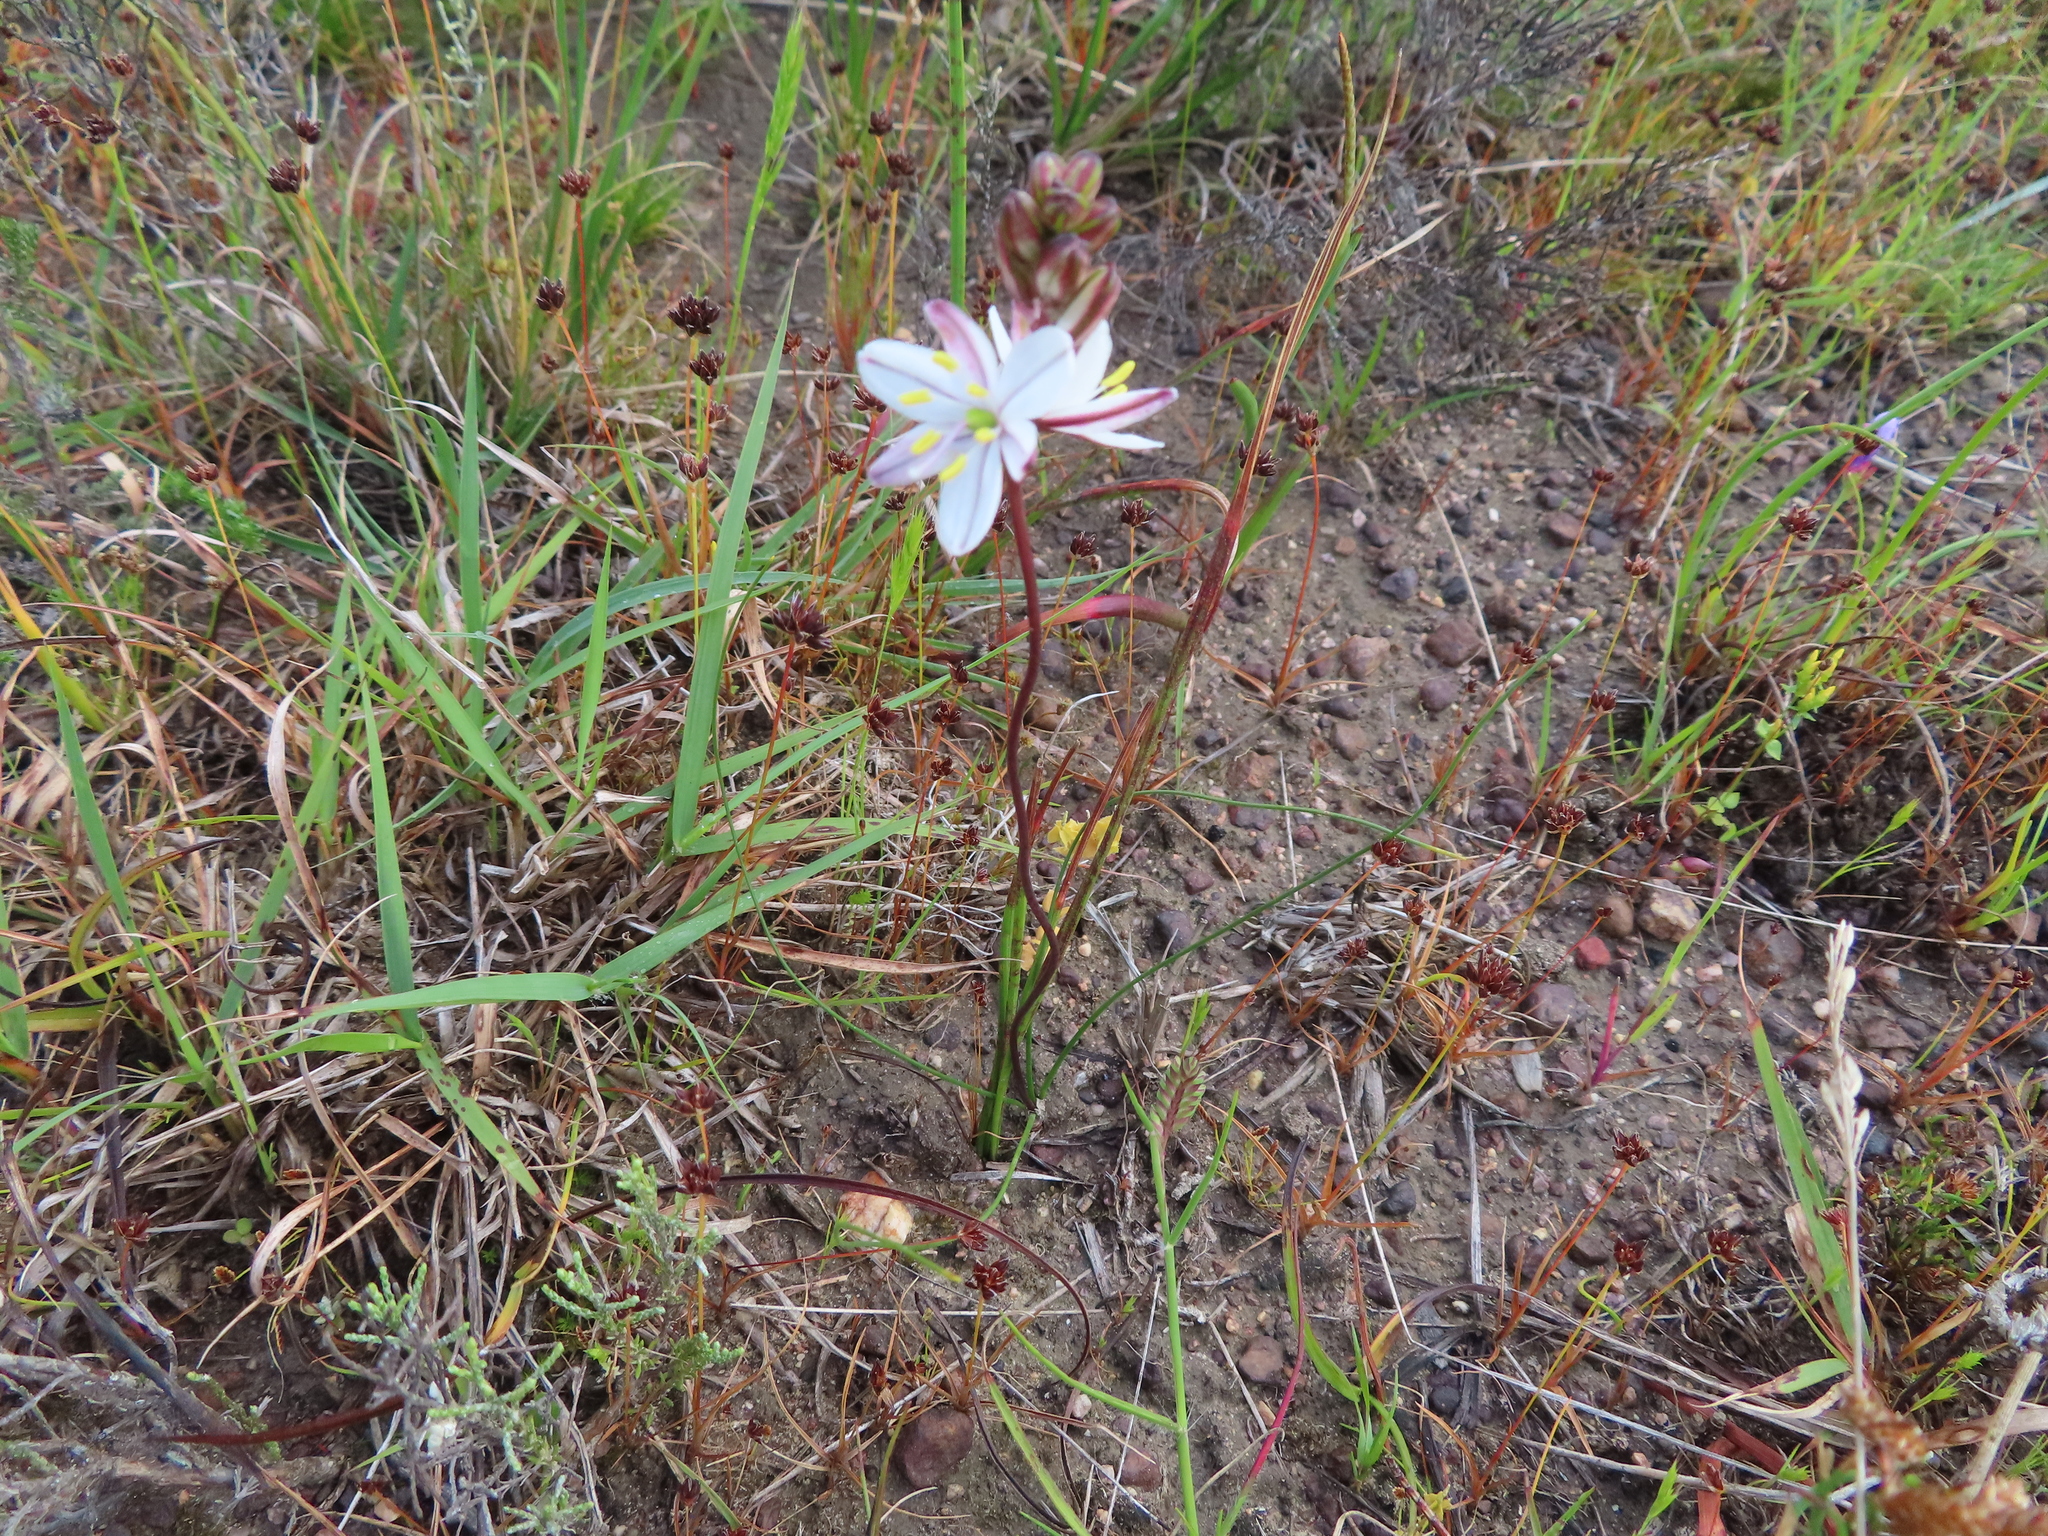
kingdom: Plantae
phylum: Tracheophyta
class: Liliopsida
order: Asparagales
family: Asparagaceae
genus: Drimia
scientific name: Drimia exuviata
